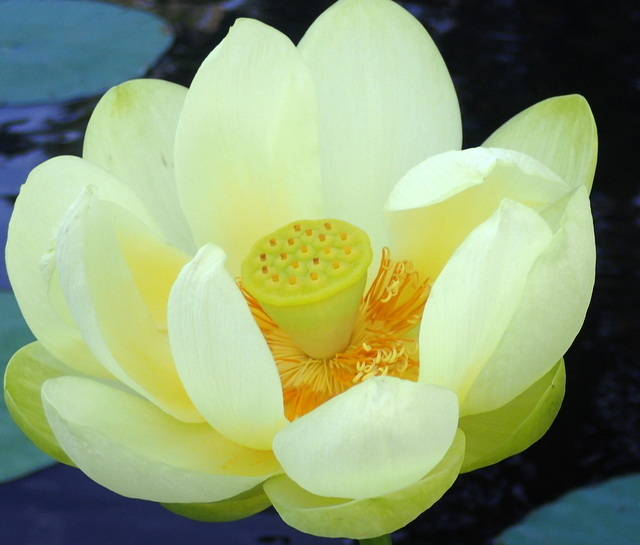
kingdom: Plantae
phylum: Tracheophyta
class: Magnoliopsida
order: Proteales
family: Nelumbonaceae
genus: Nelumbo
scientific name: Nelumbo lutea
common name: American lotus
